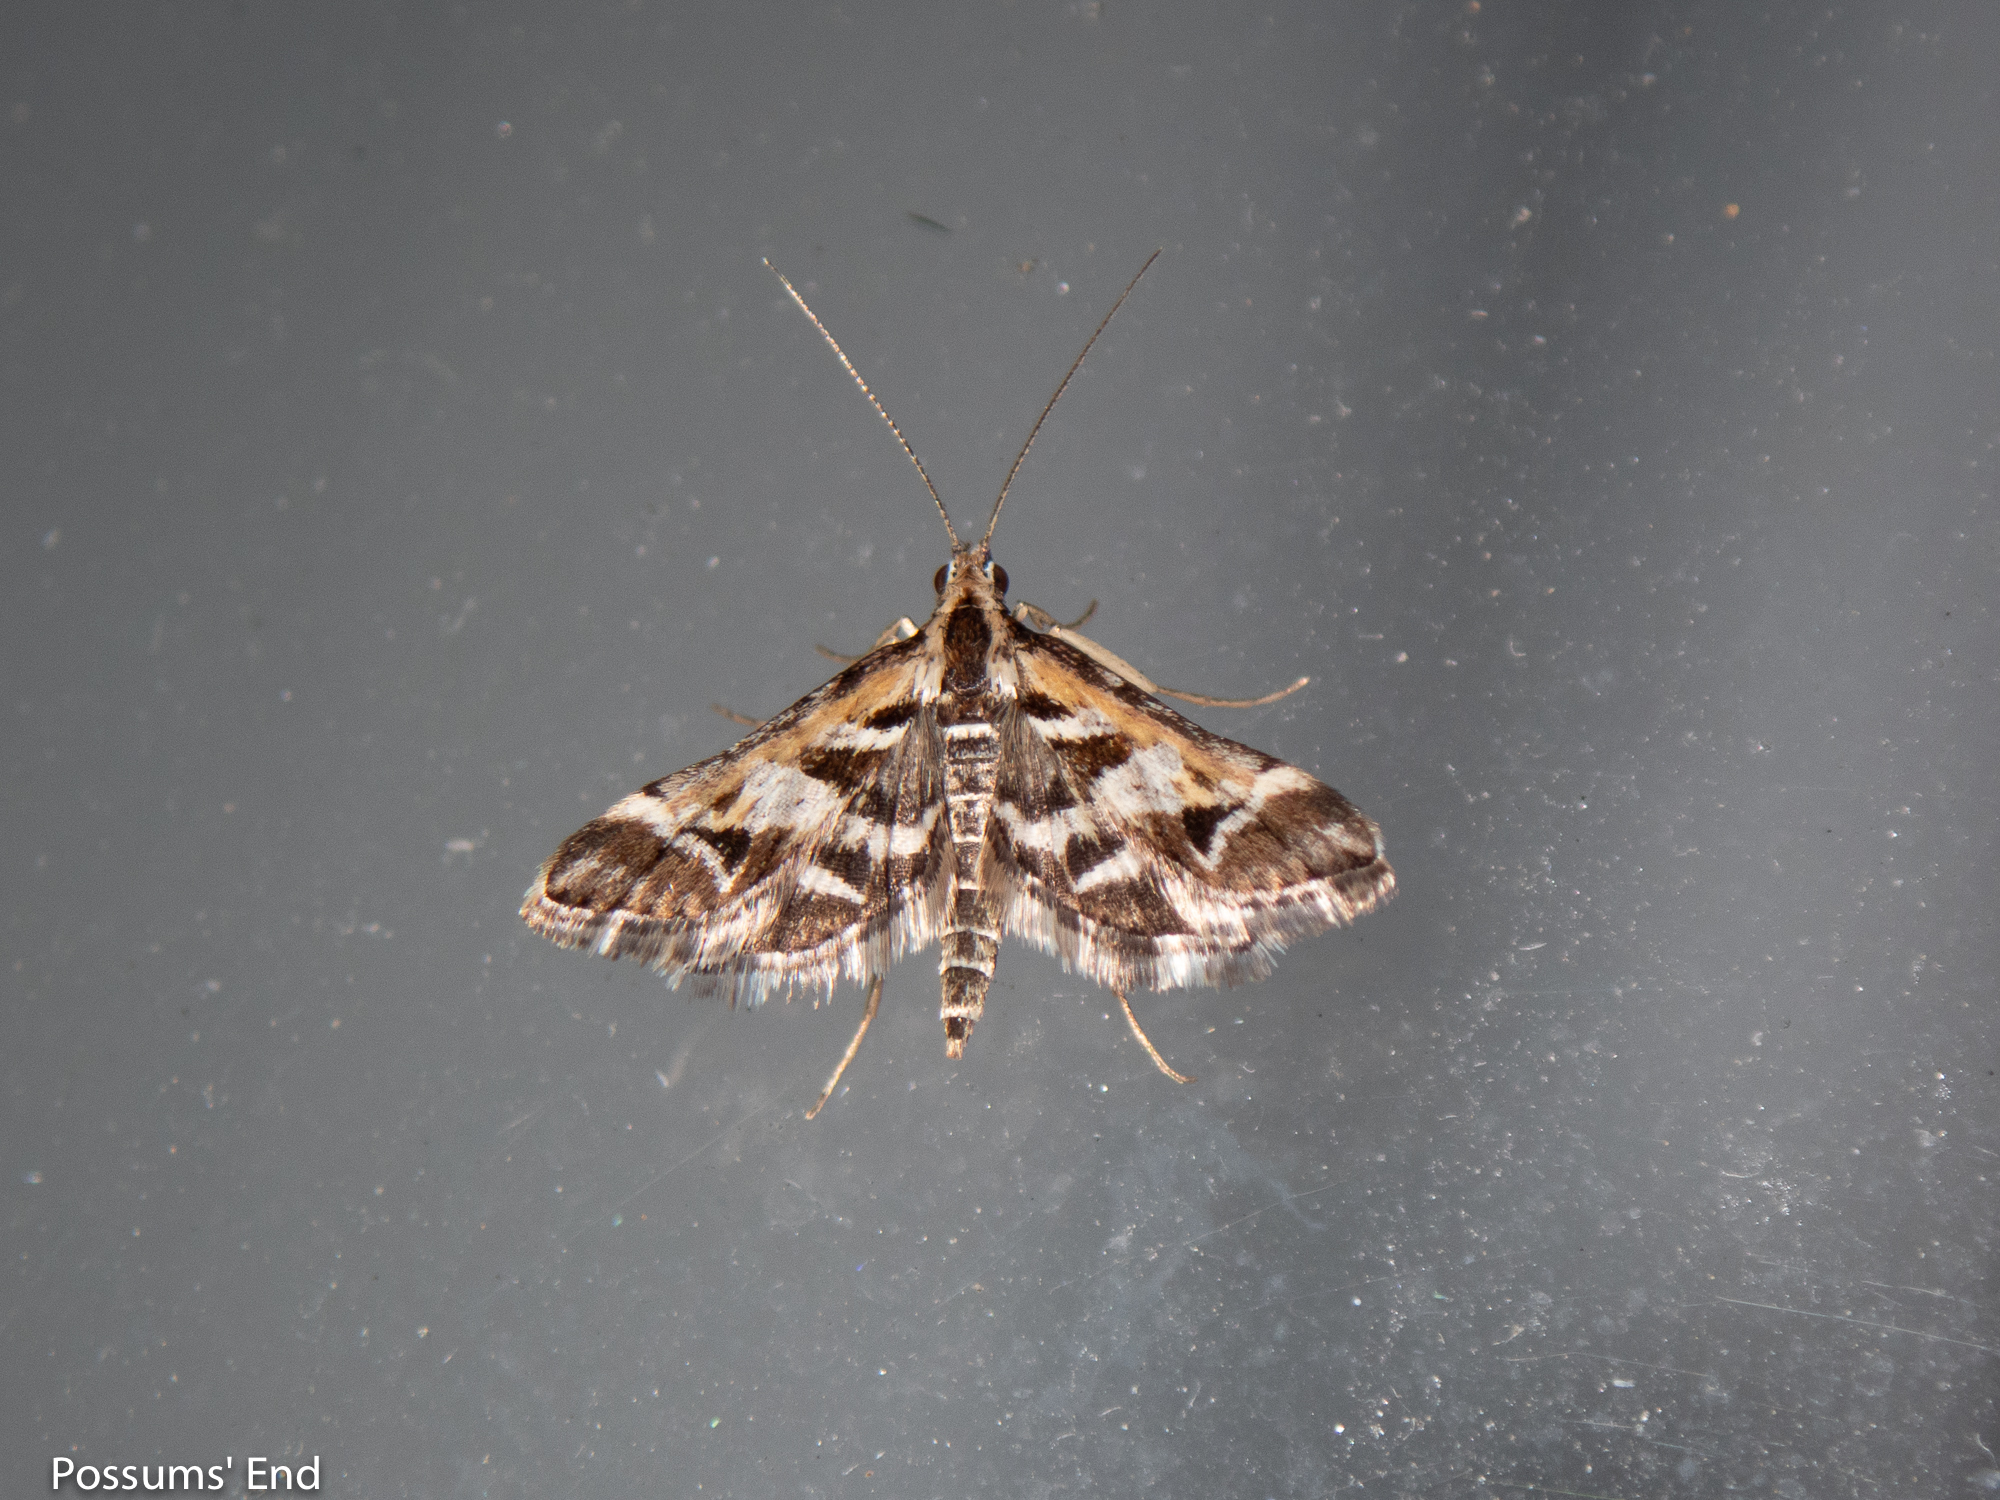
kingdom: Animalia
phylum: Arthropoda
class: Insecta
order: Lepidoptera
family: Crambidae
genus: Diasemia
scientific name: Diasemia grammalis
